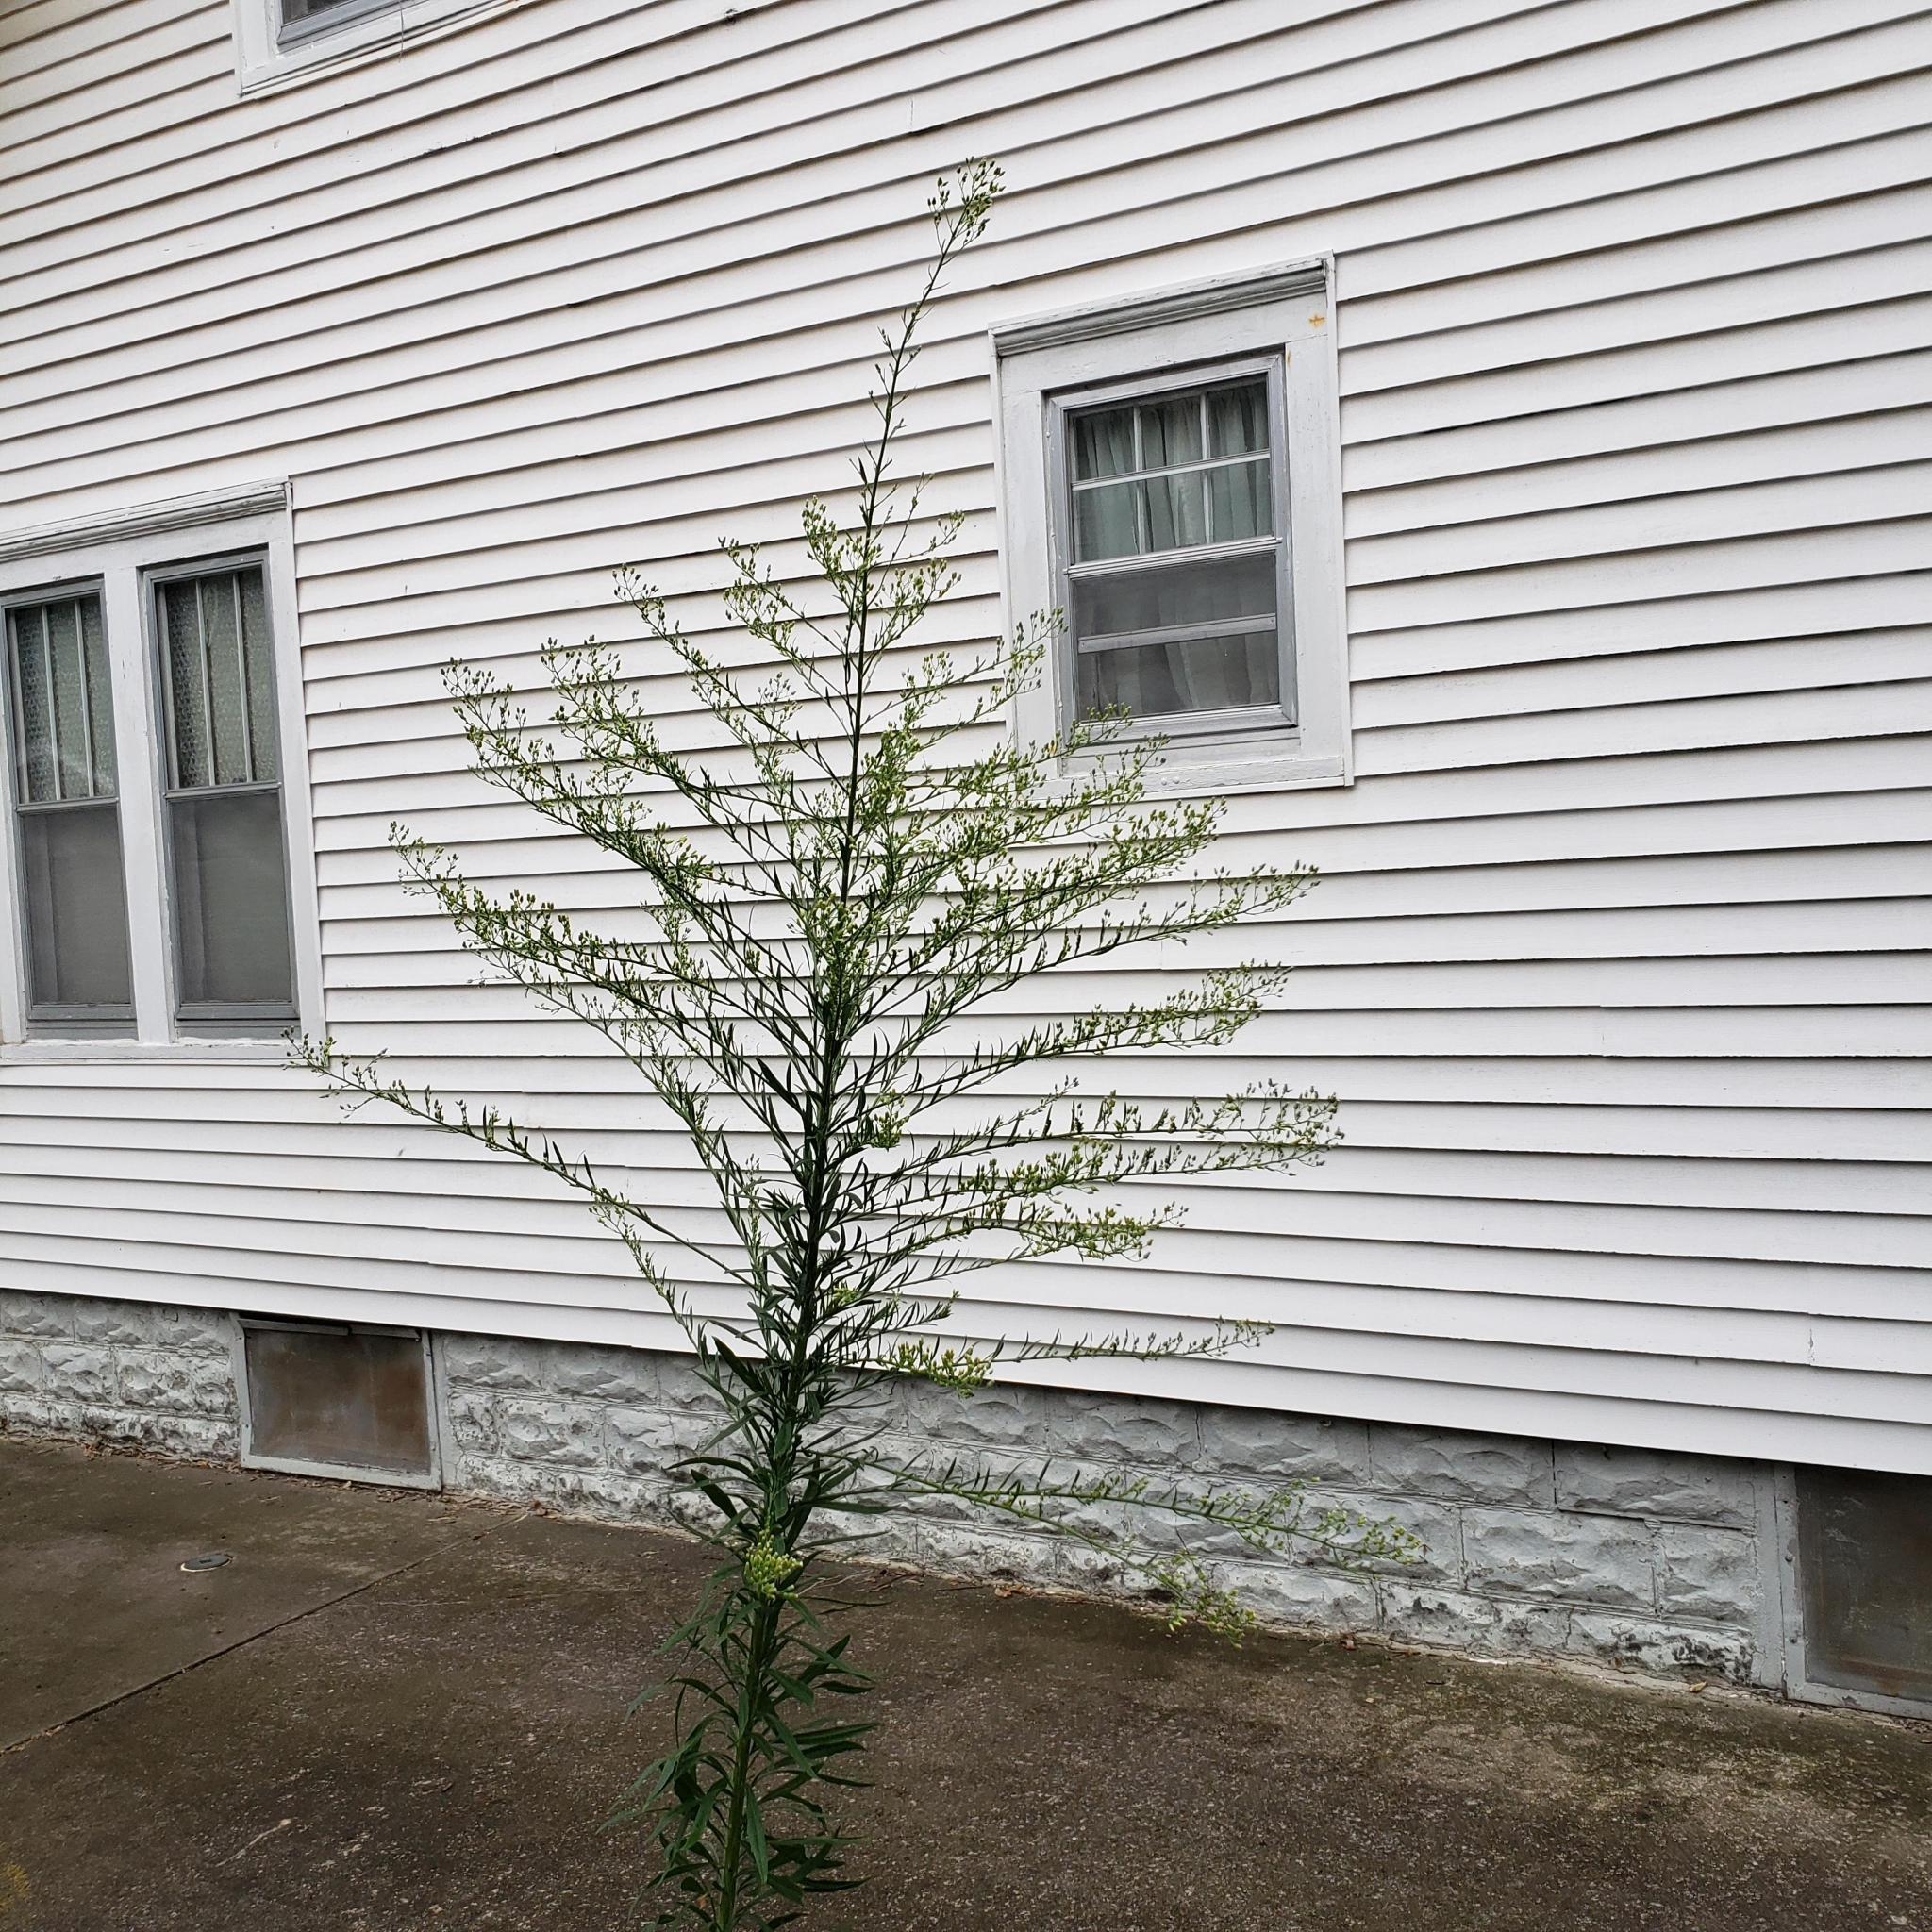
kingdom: Plantae
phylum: Tracheophyta
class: Magnoliopsida
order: Asterales
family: Asteraceae
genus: Erigeron
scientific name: Erigeron canadensis
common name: Canadian fleabane
